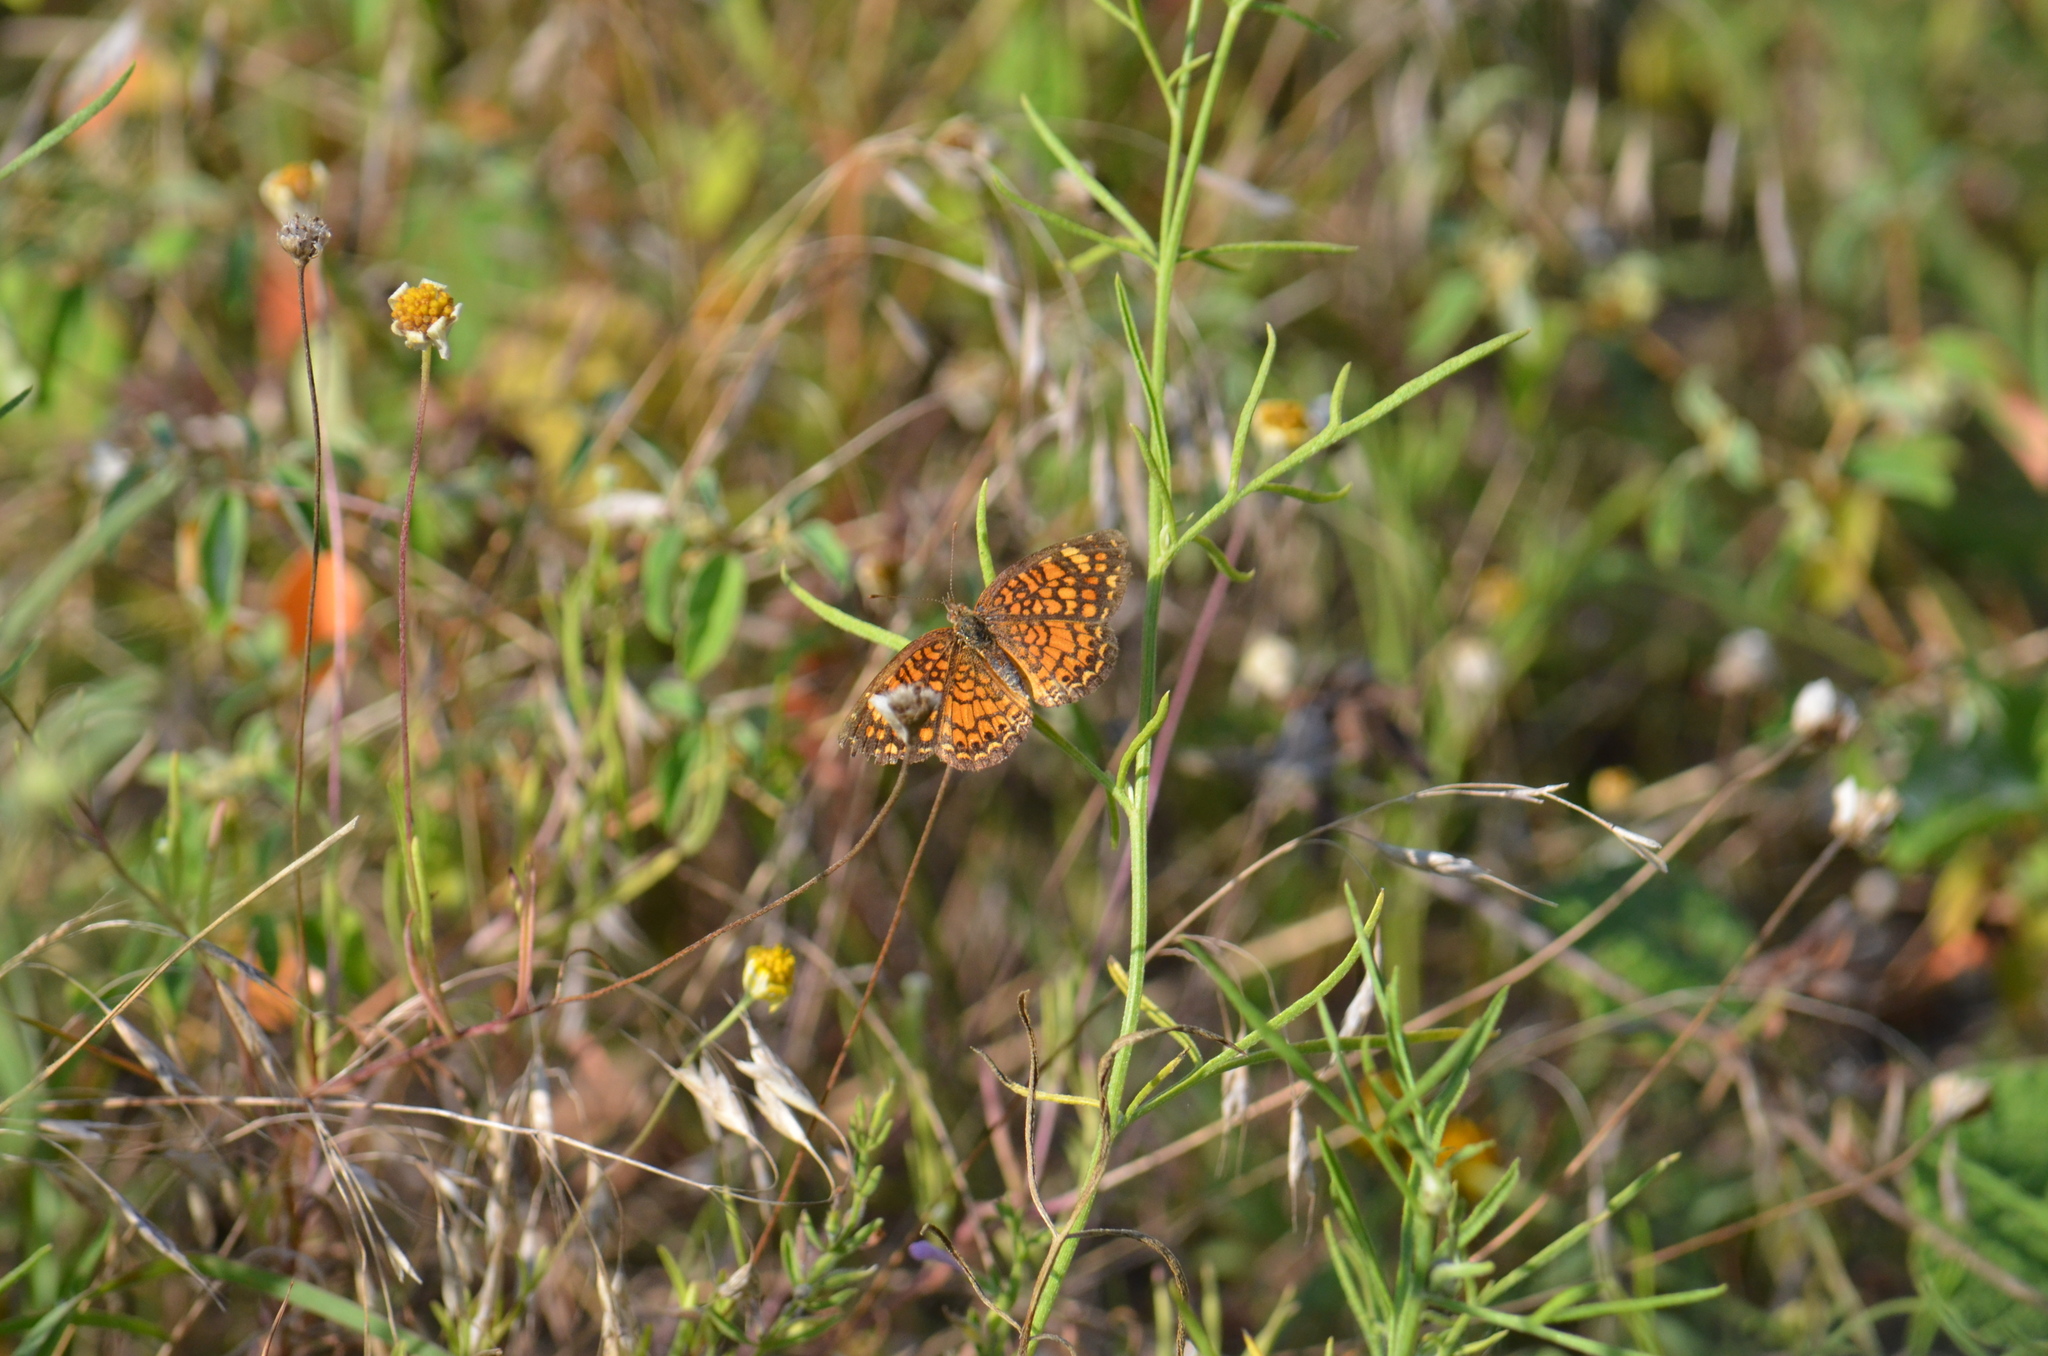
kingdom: Animalia
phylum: Arthropoda
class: Insecta
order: Lepidoptera
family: Nymphalidae
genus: Phyciodes
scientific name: Phyciodes vesta
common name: Vesta crescent
